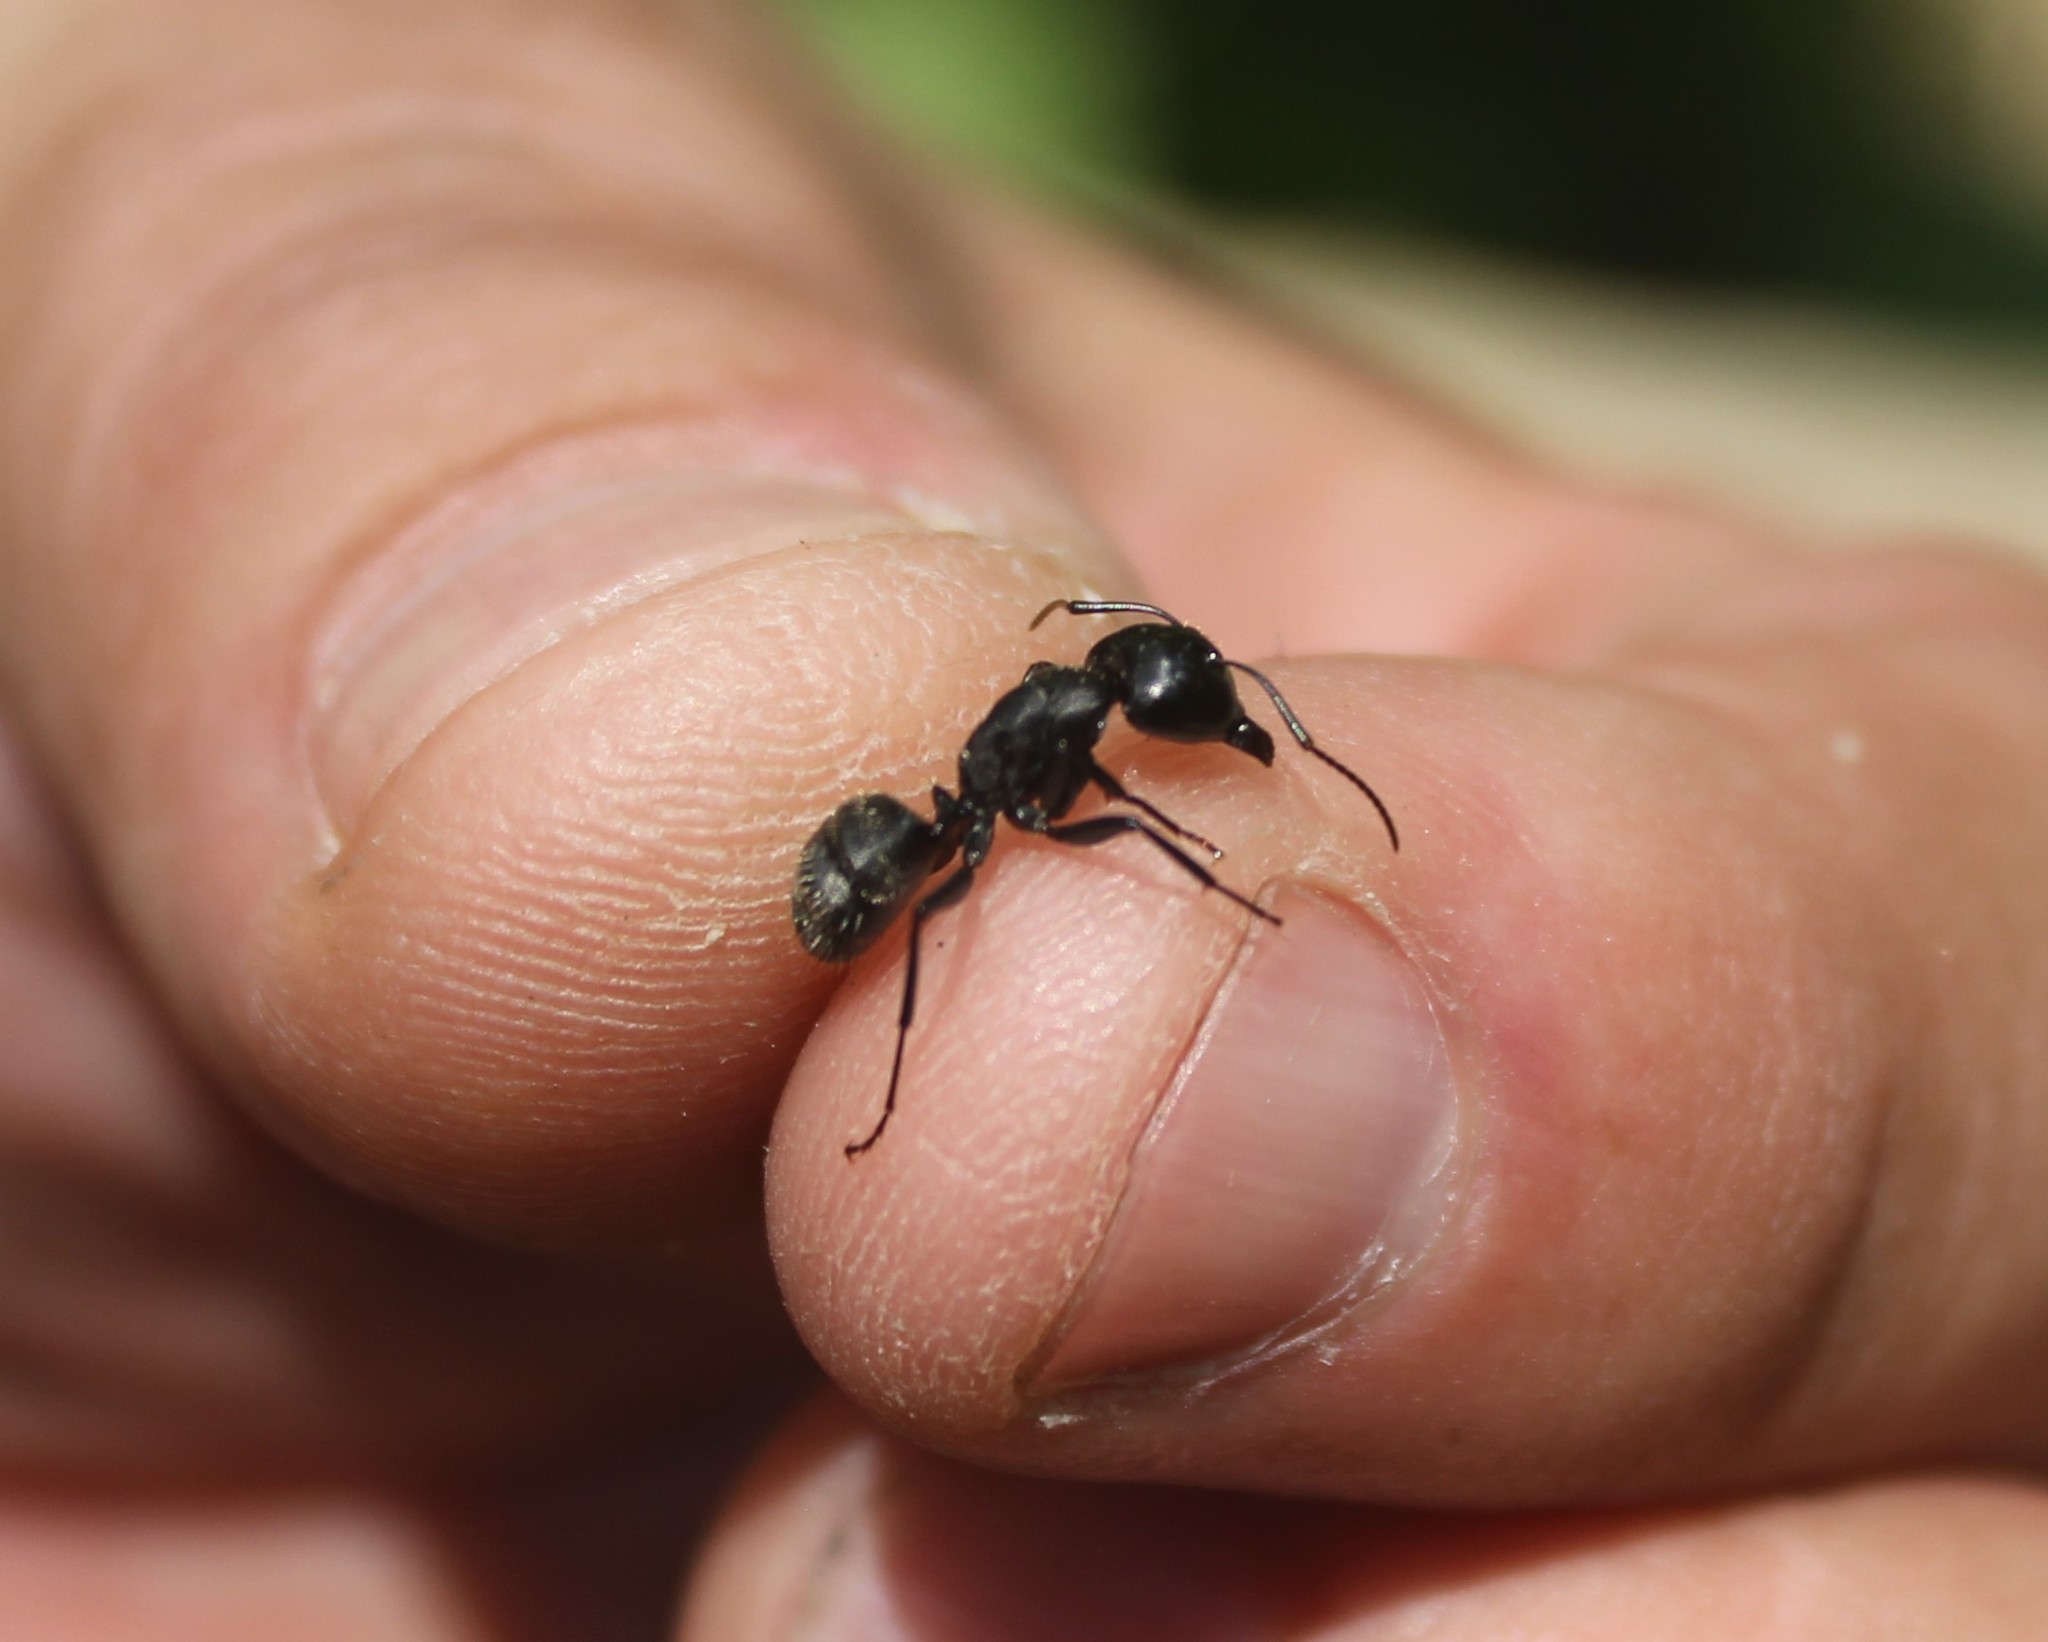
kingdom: Animalia
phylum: Arthropoda
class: Insecta
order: Hymenoptera
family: Formicidae
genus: Camponotus
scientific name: Camponotus vagus
